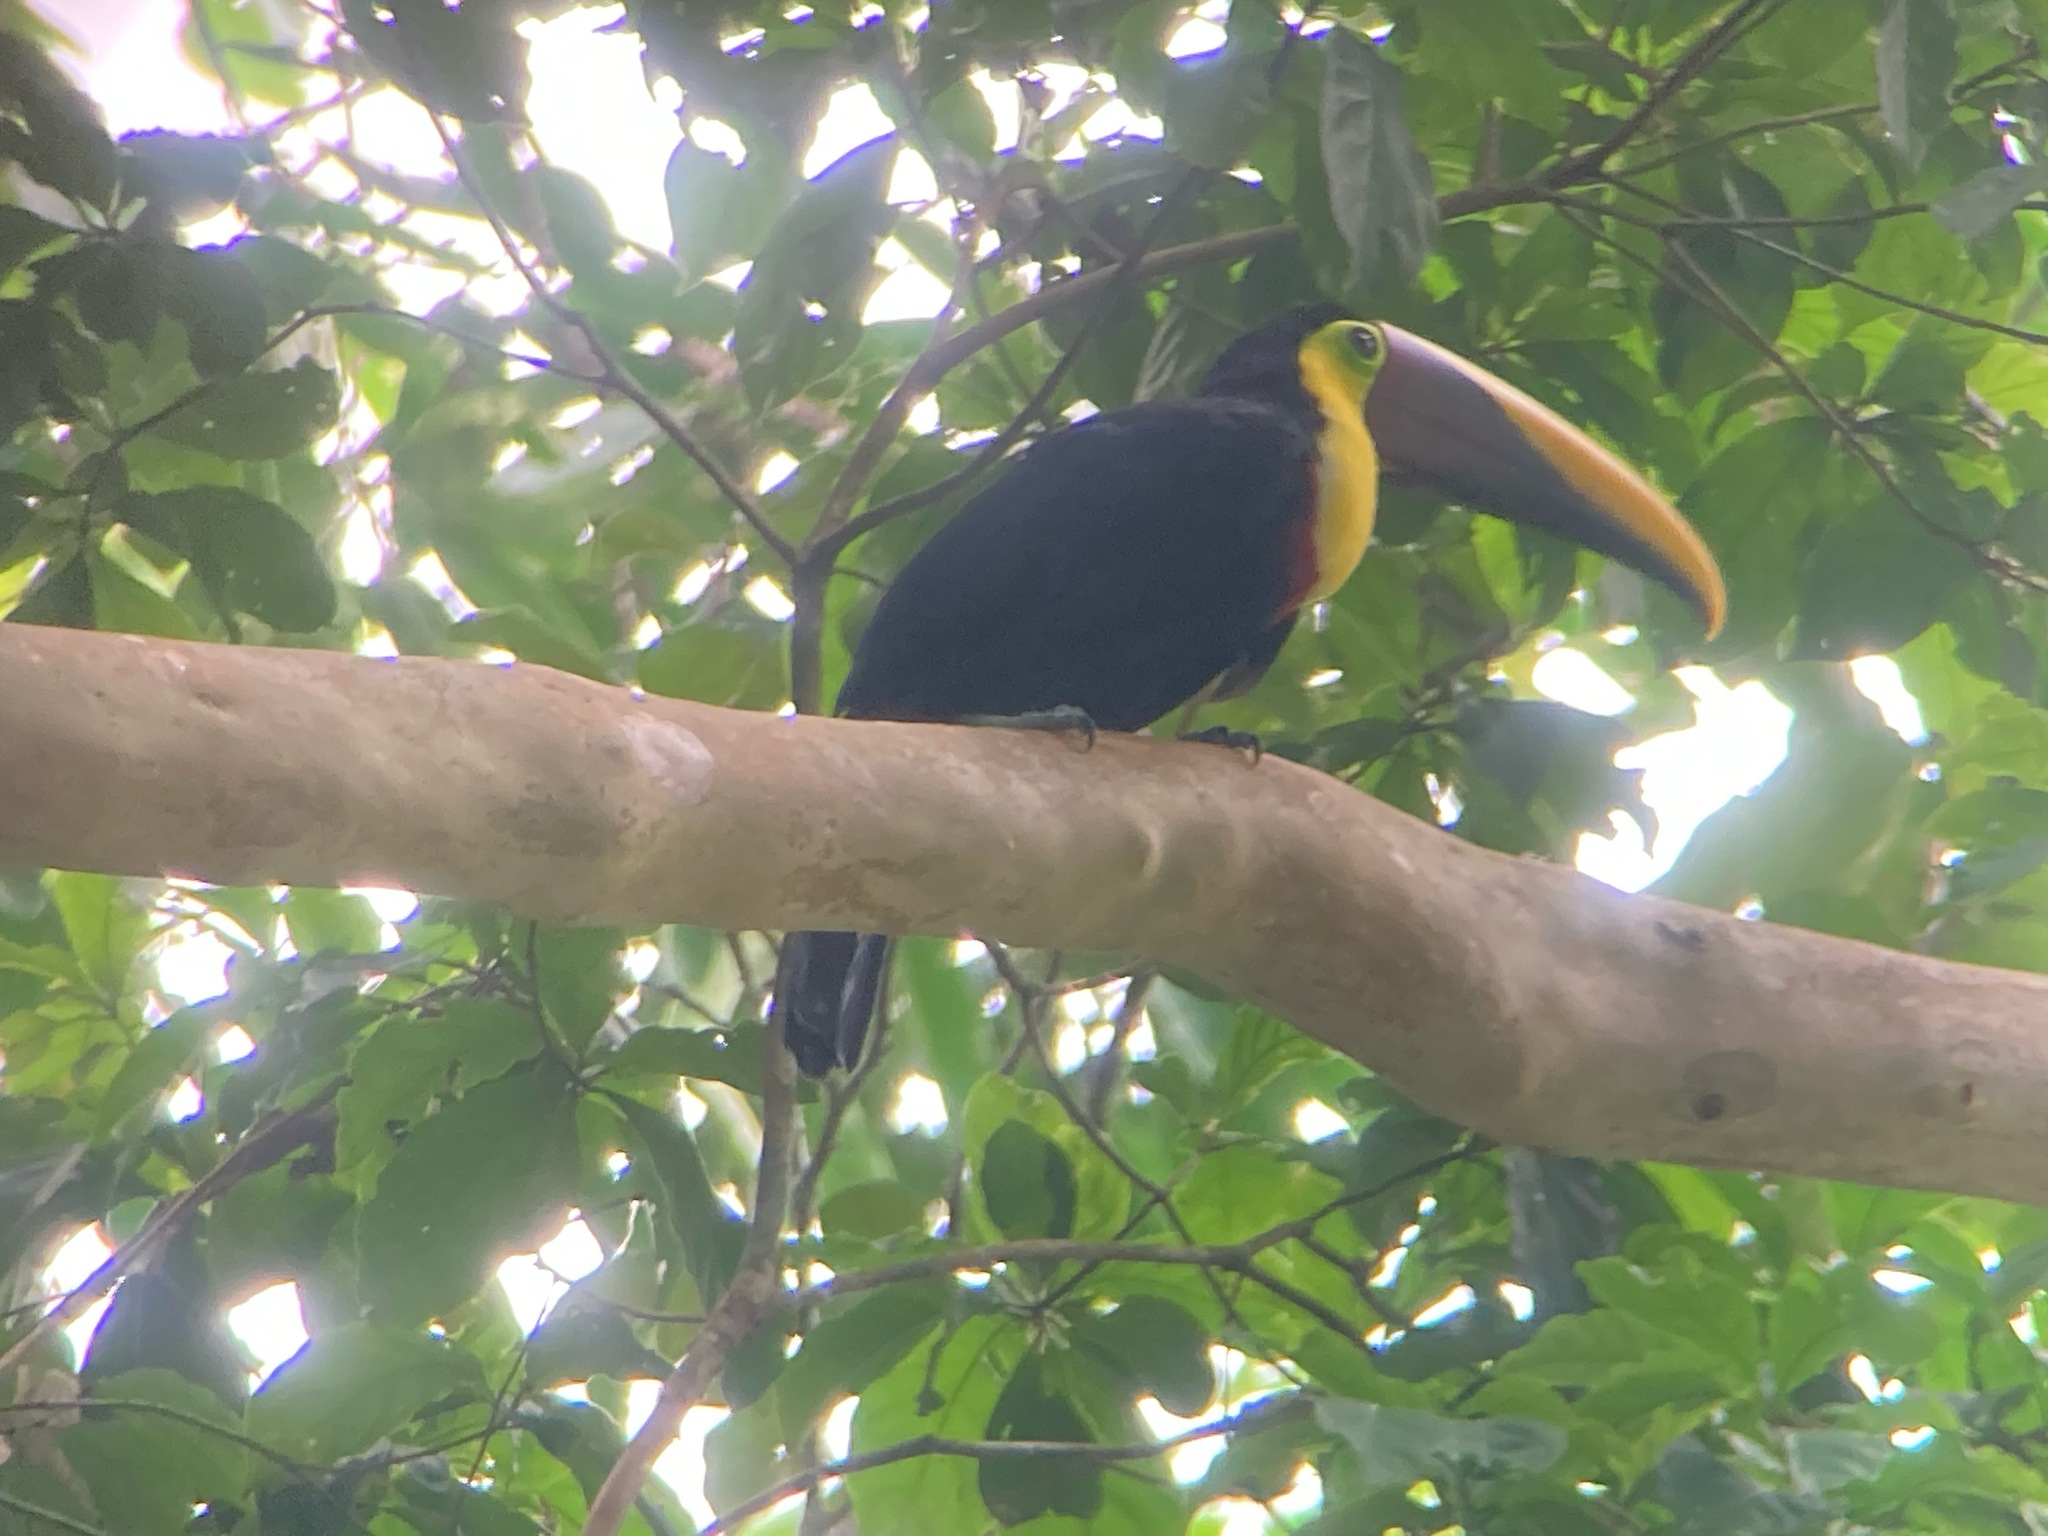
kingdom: Animalia
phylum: Chordata
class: Aves
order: Piciformes
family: Ramphastidae
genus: Ramphastos
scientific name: Ramphastos ambiguus
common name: Yellow-throated toucan
